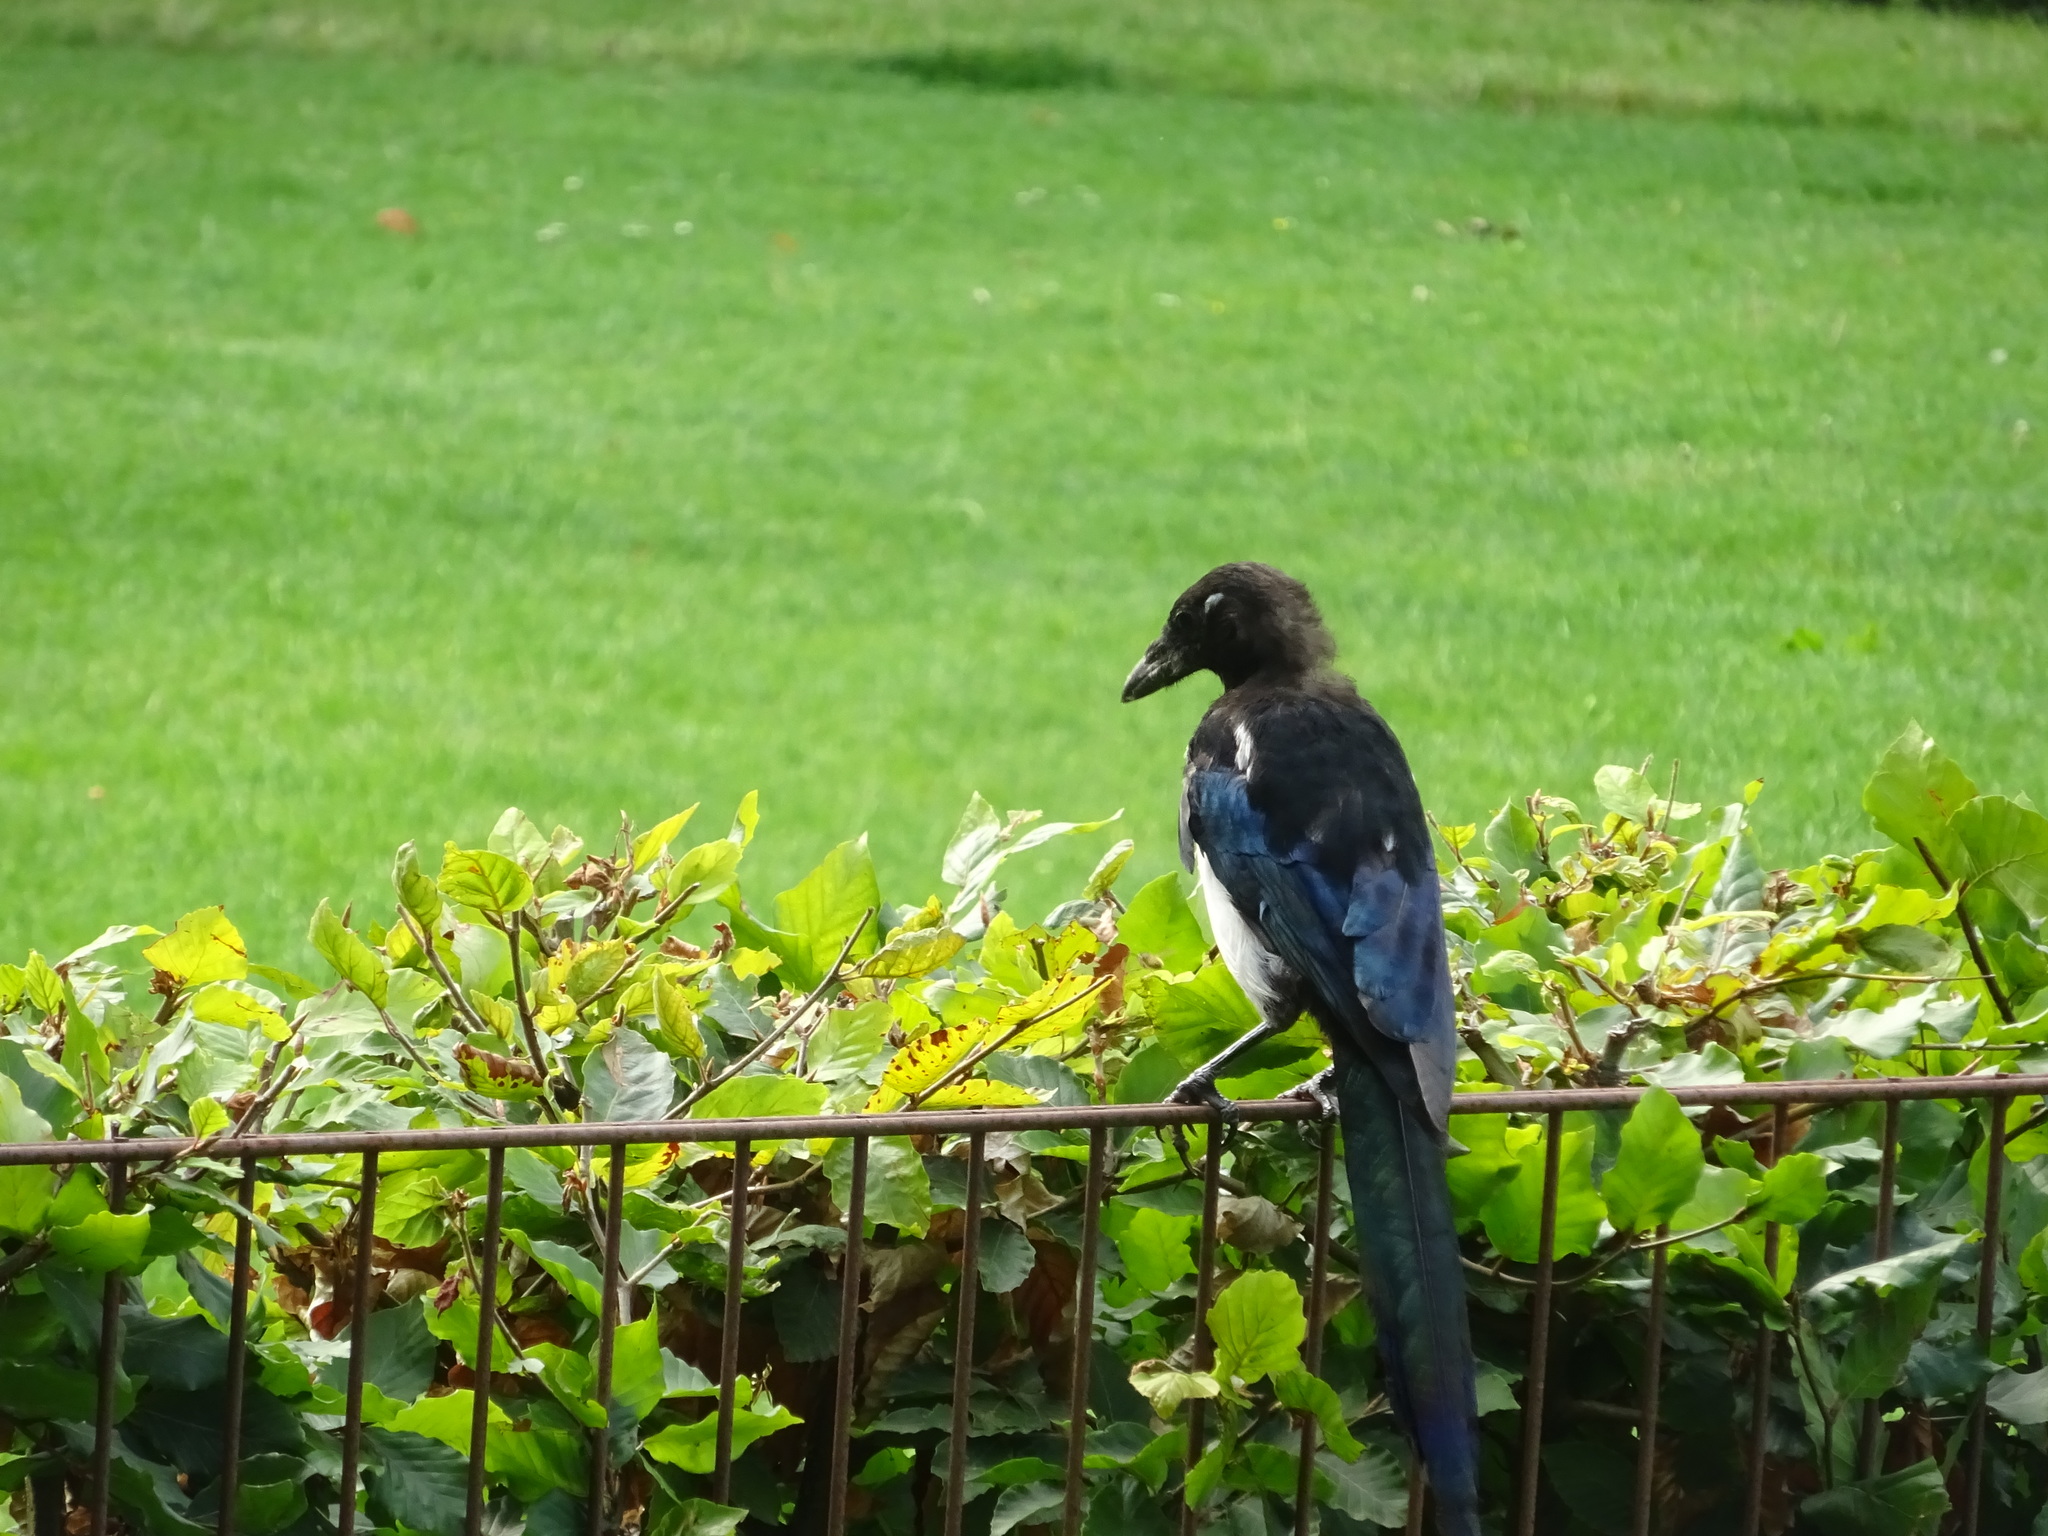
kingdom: Animalia
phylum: Chordata
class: Aves
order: Passeriformes
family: Corvidae
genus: Pica
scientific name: Pica pica
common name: Eurasian magpie
